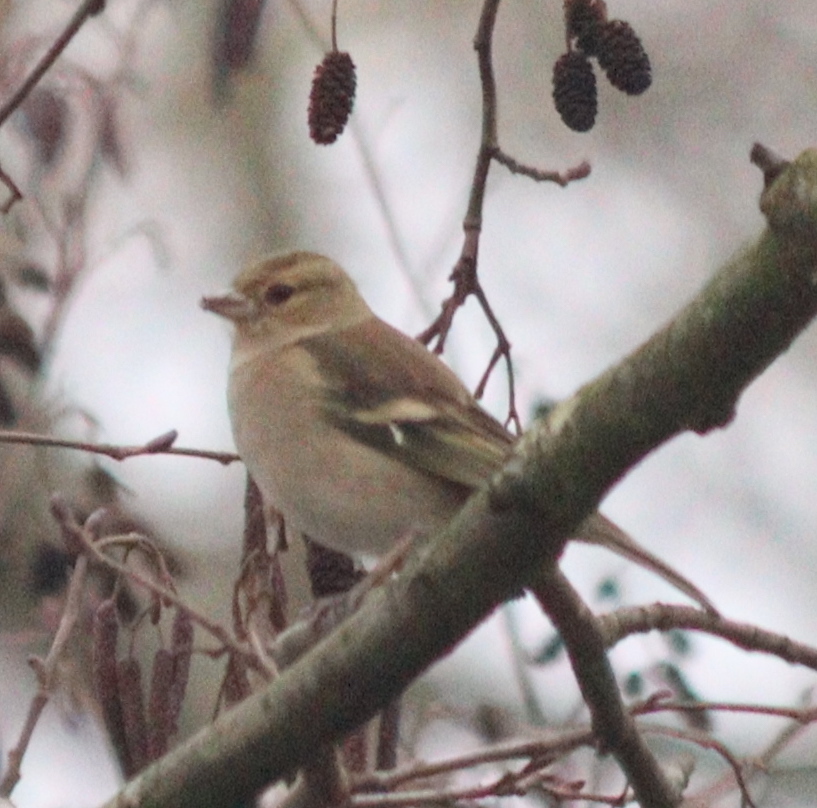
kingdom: Animalia
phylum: Chordata
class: Aves
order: Passeriformes
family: Fringillidae
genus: Fringilla
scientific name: Fringilla coelebs
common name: Common chaffinch
